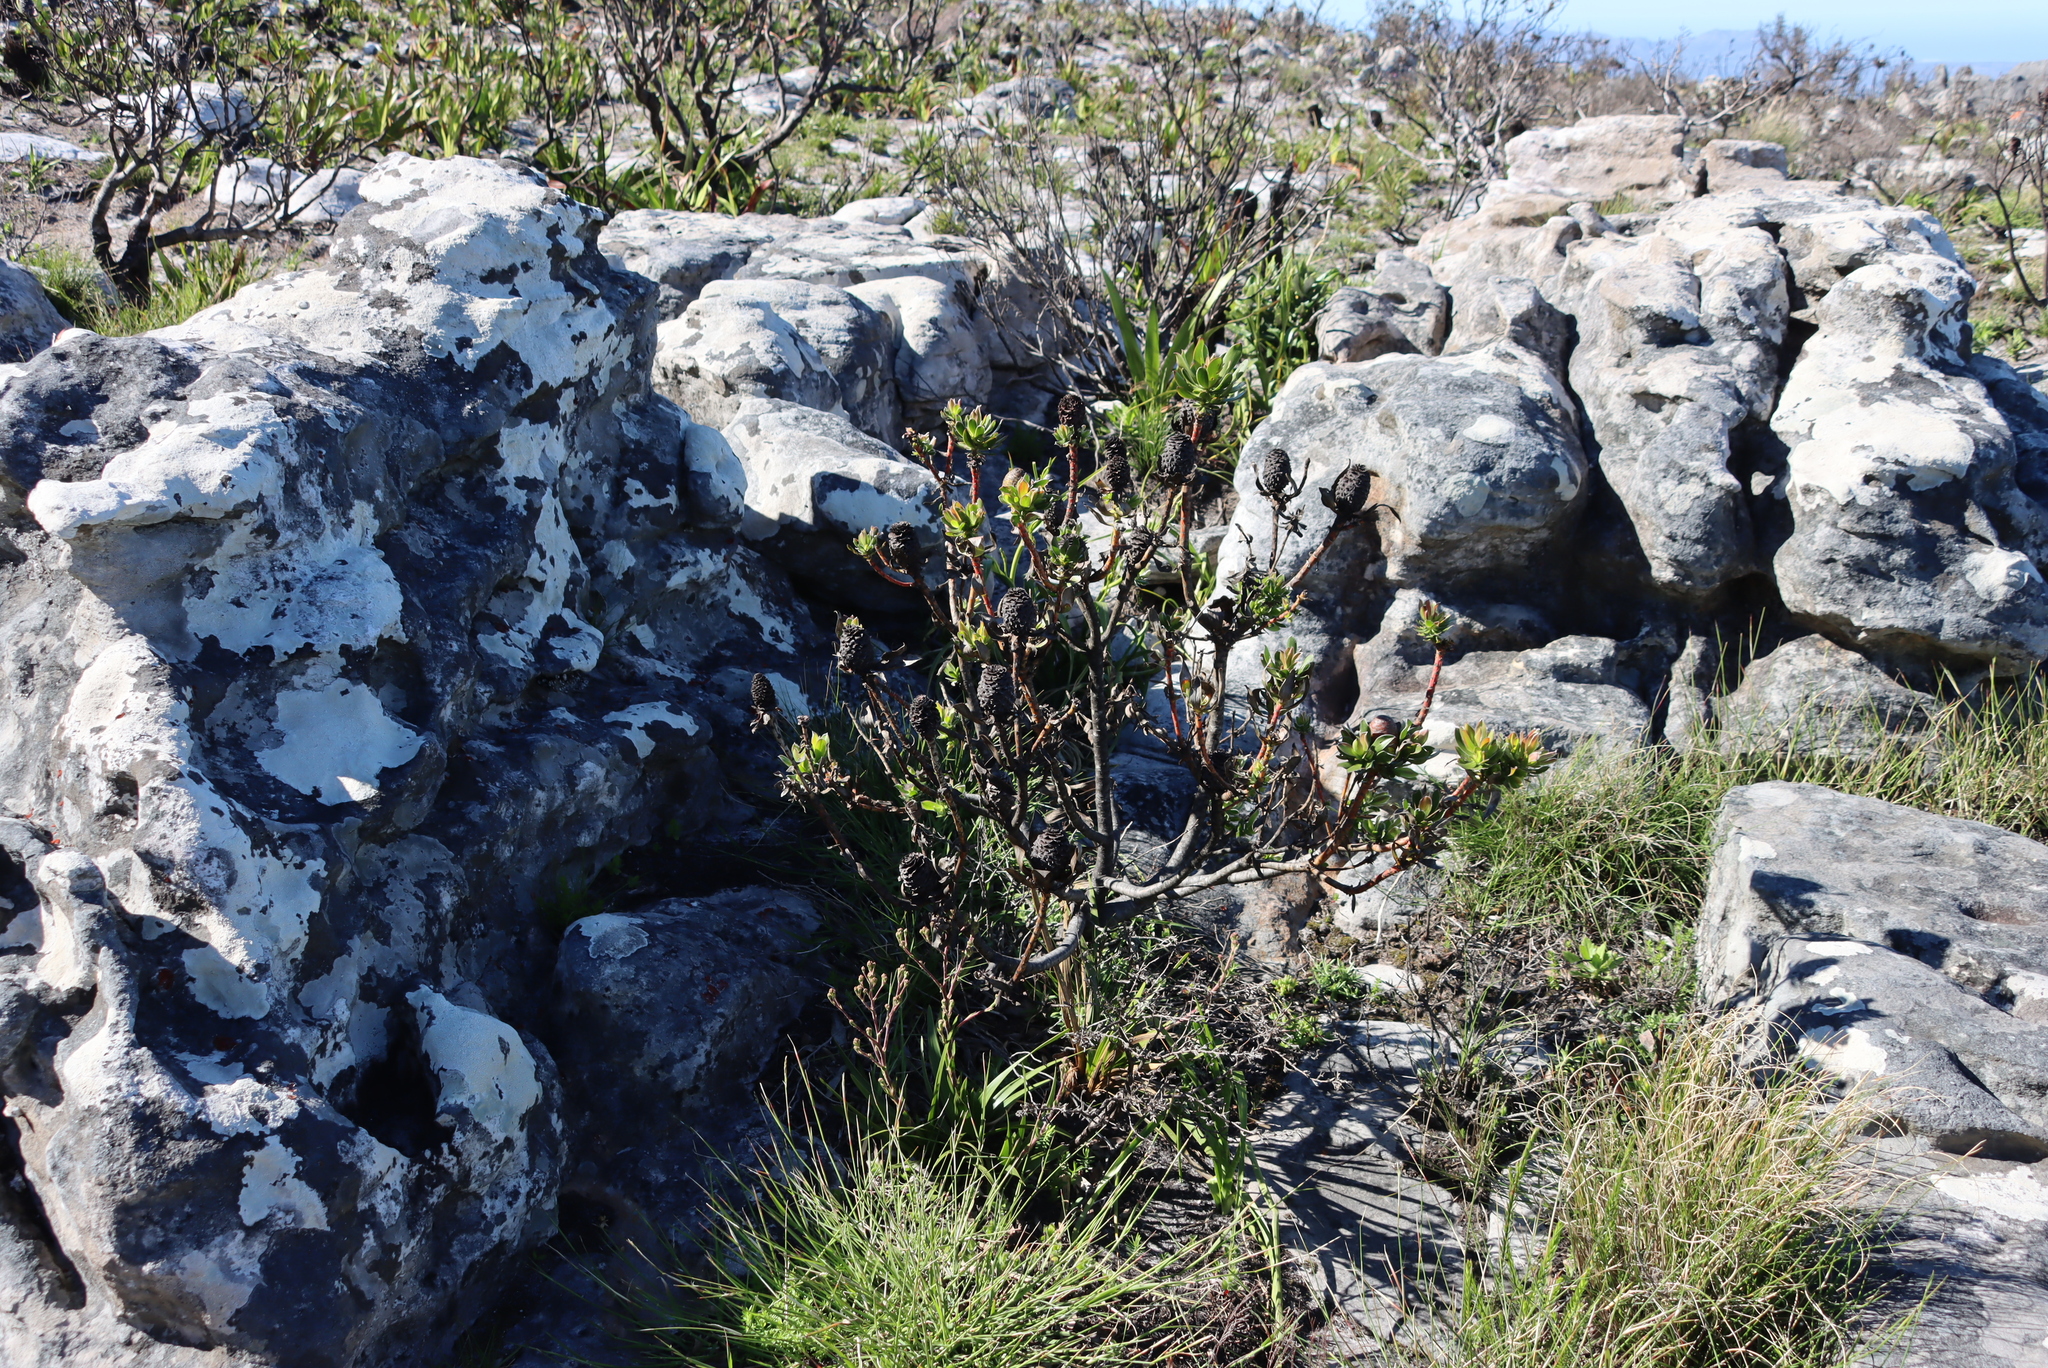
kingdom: Plantae
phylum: Tracheophyta
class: Magnoliopsida
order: Proteales
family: Proteaceae
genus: Leucadendron
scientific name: Leucadendron strobilinum
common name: Mountain rose
